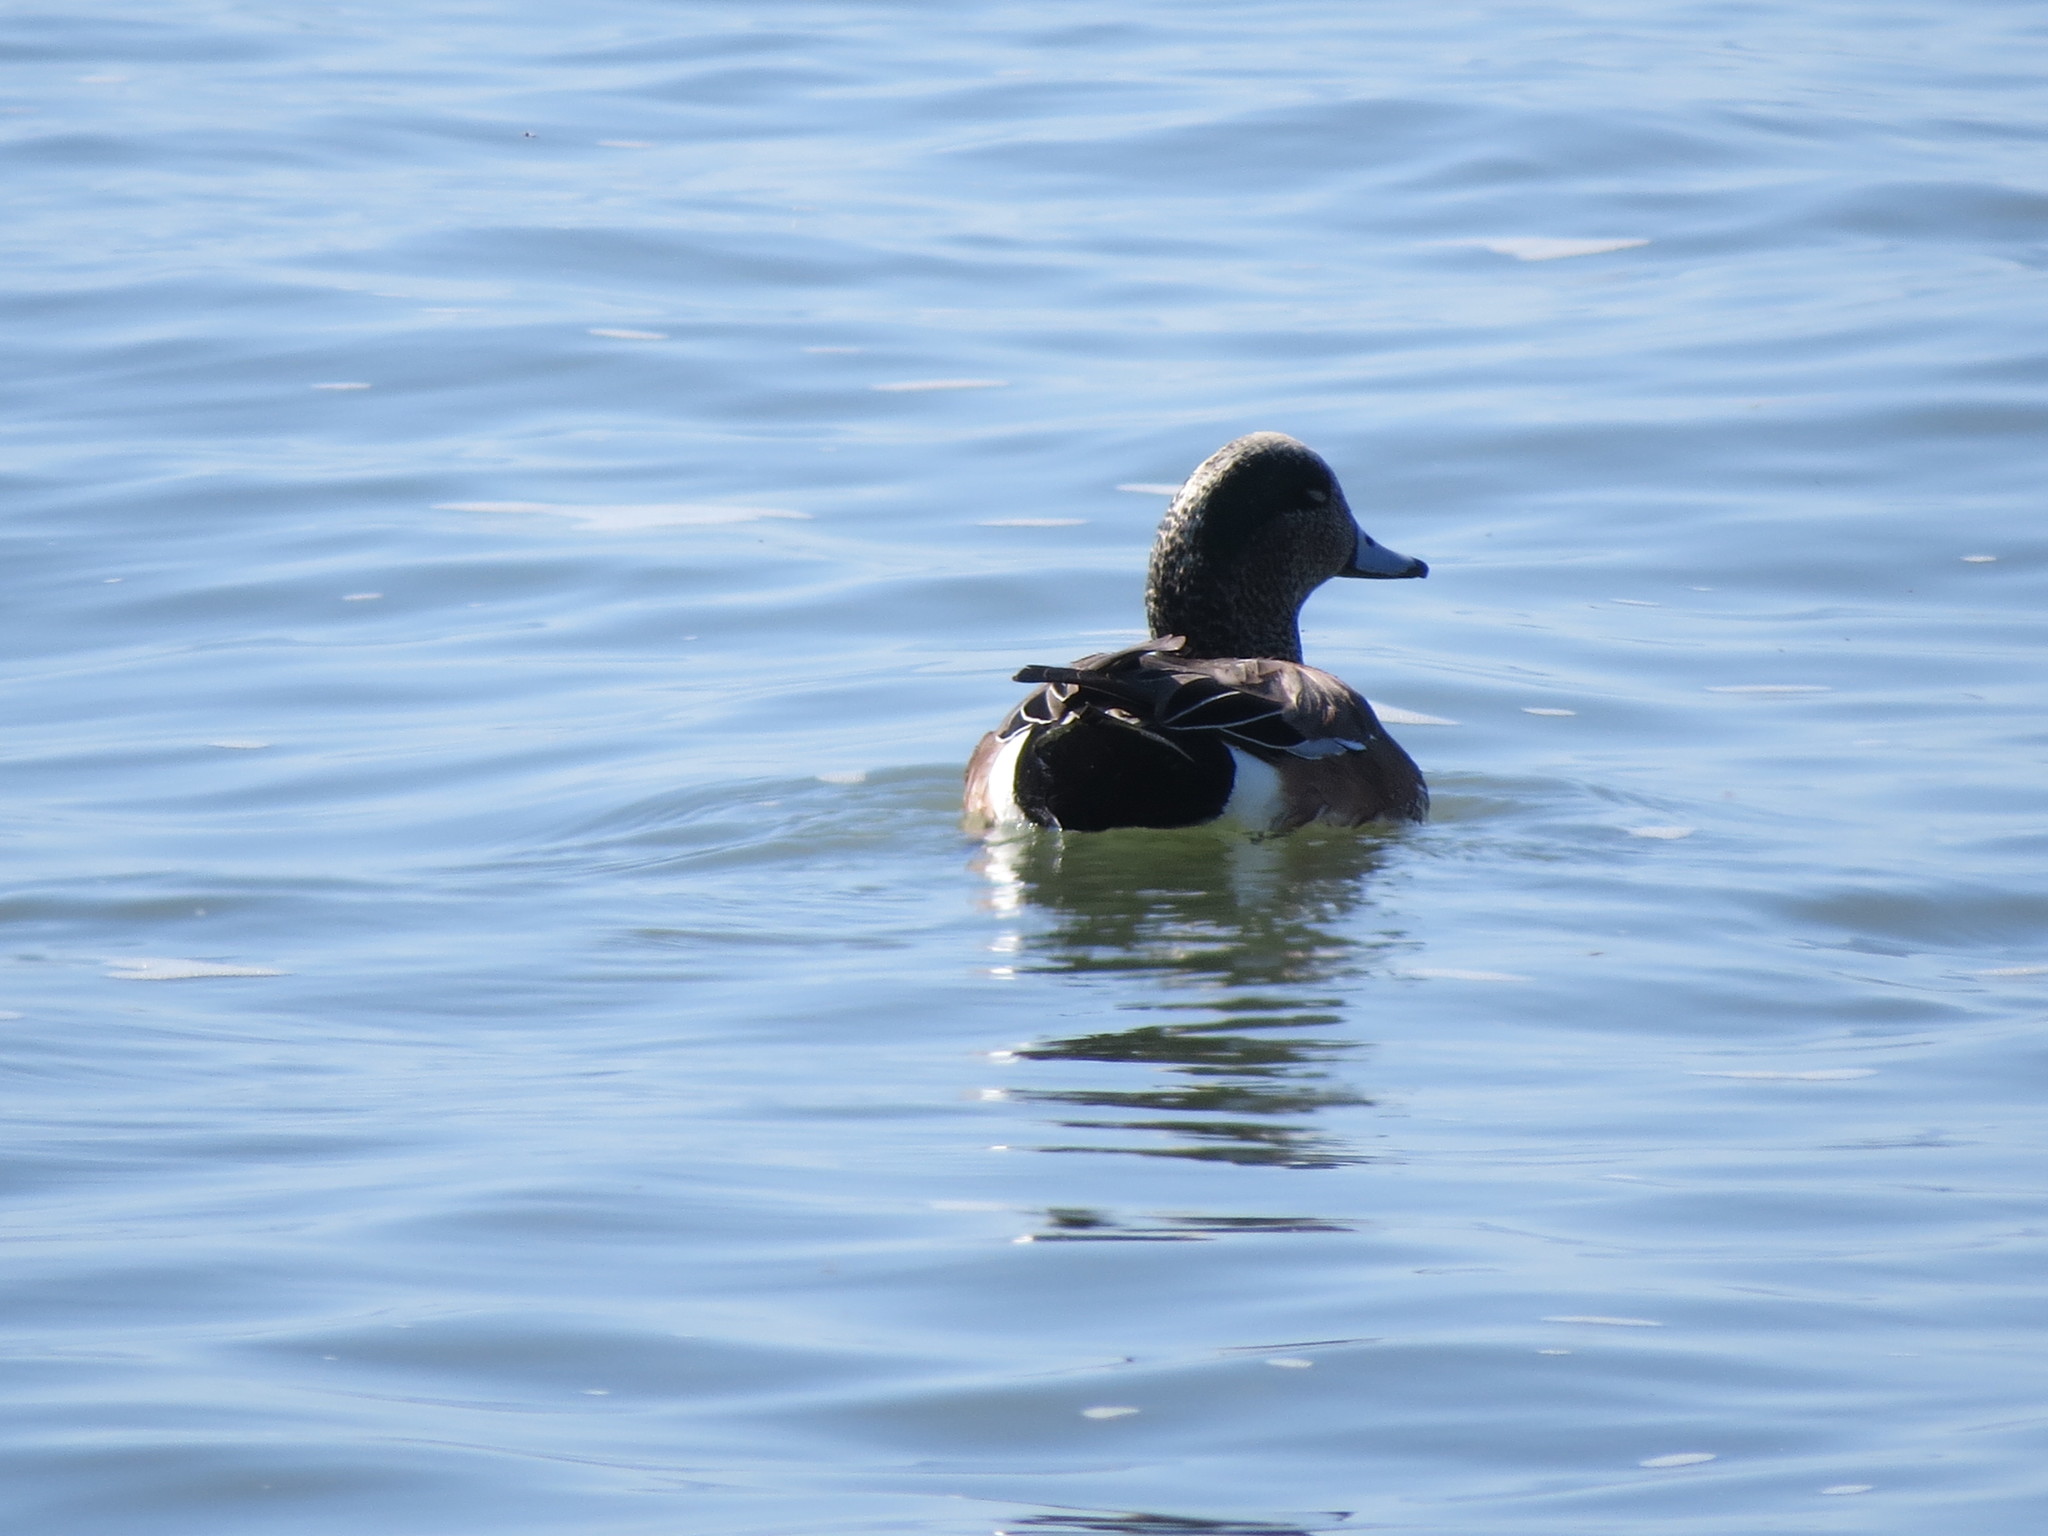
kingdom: Animalia
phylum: Chordata
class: Aves
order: Anseriformes
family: Anatidae
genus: Mareca
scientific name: Mareca americana
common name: American wigeon
